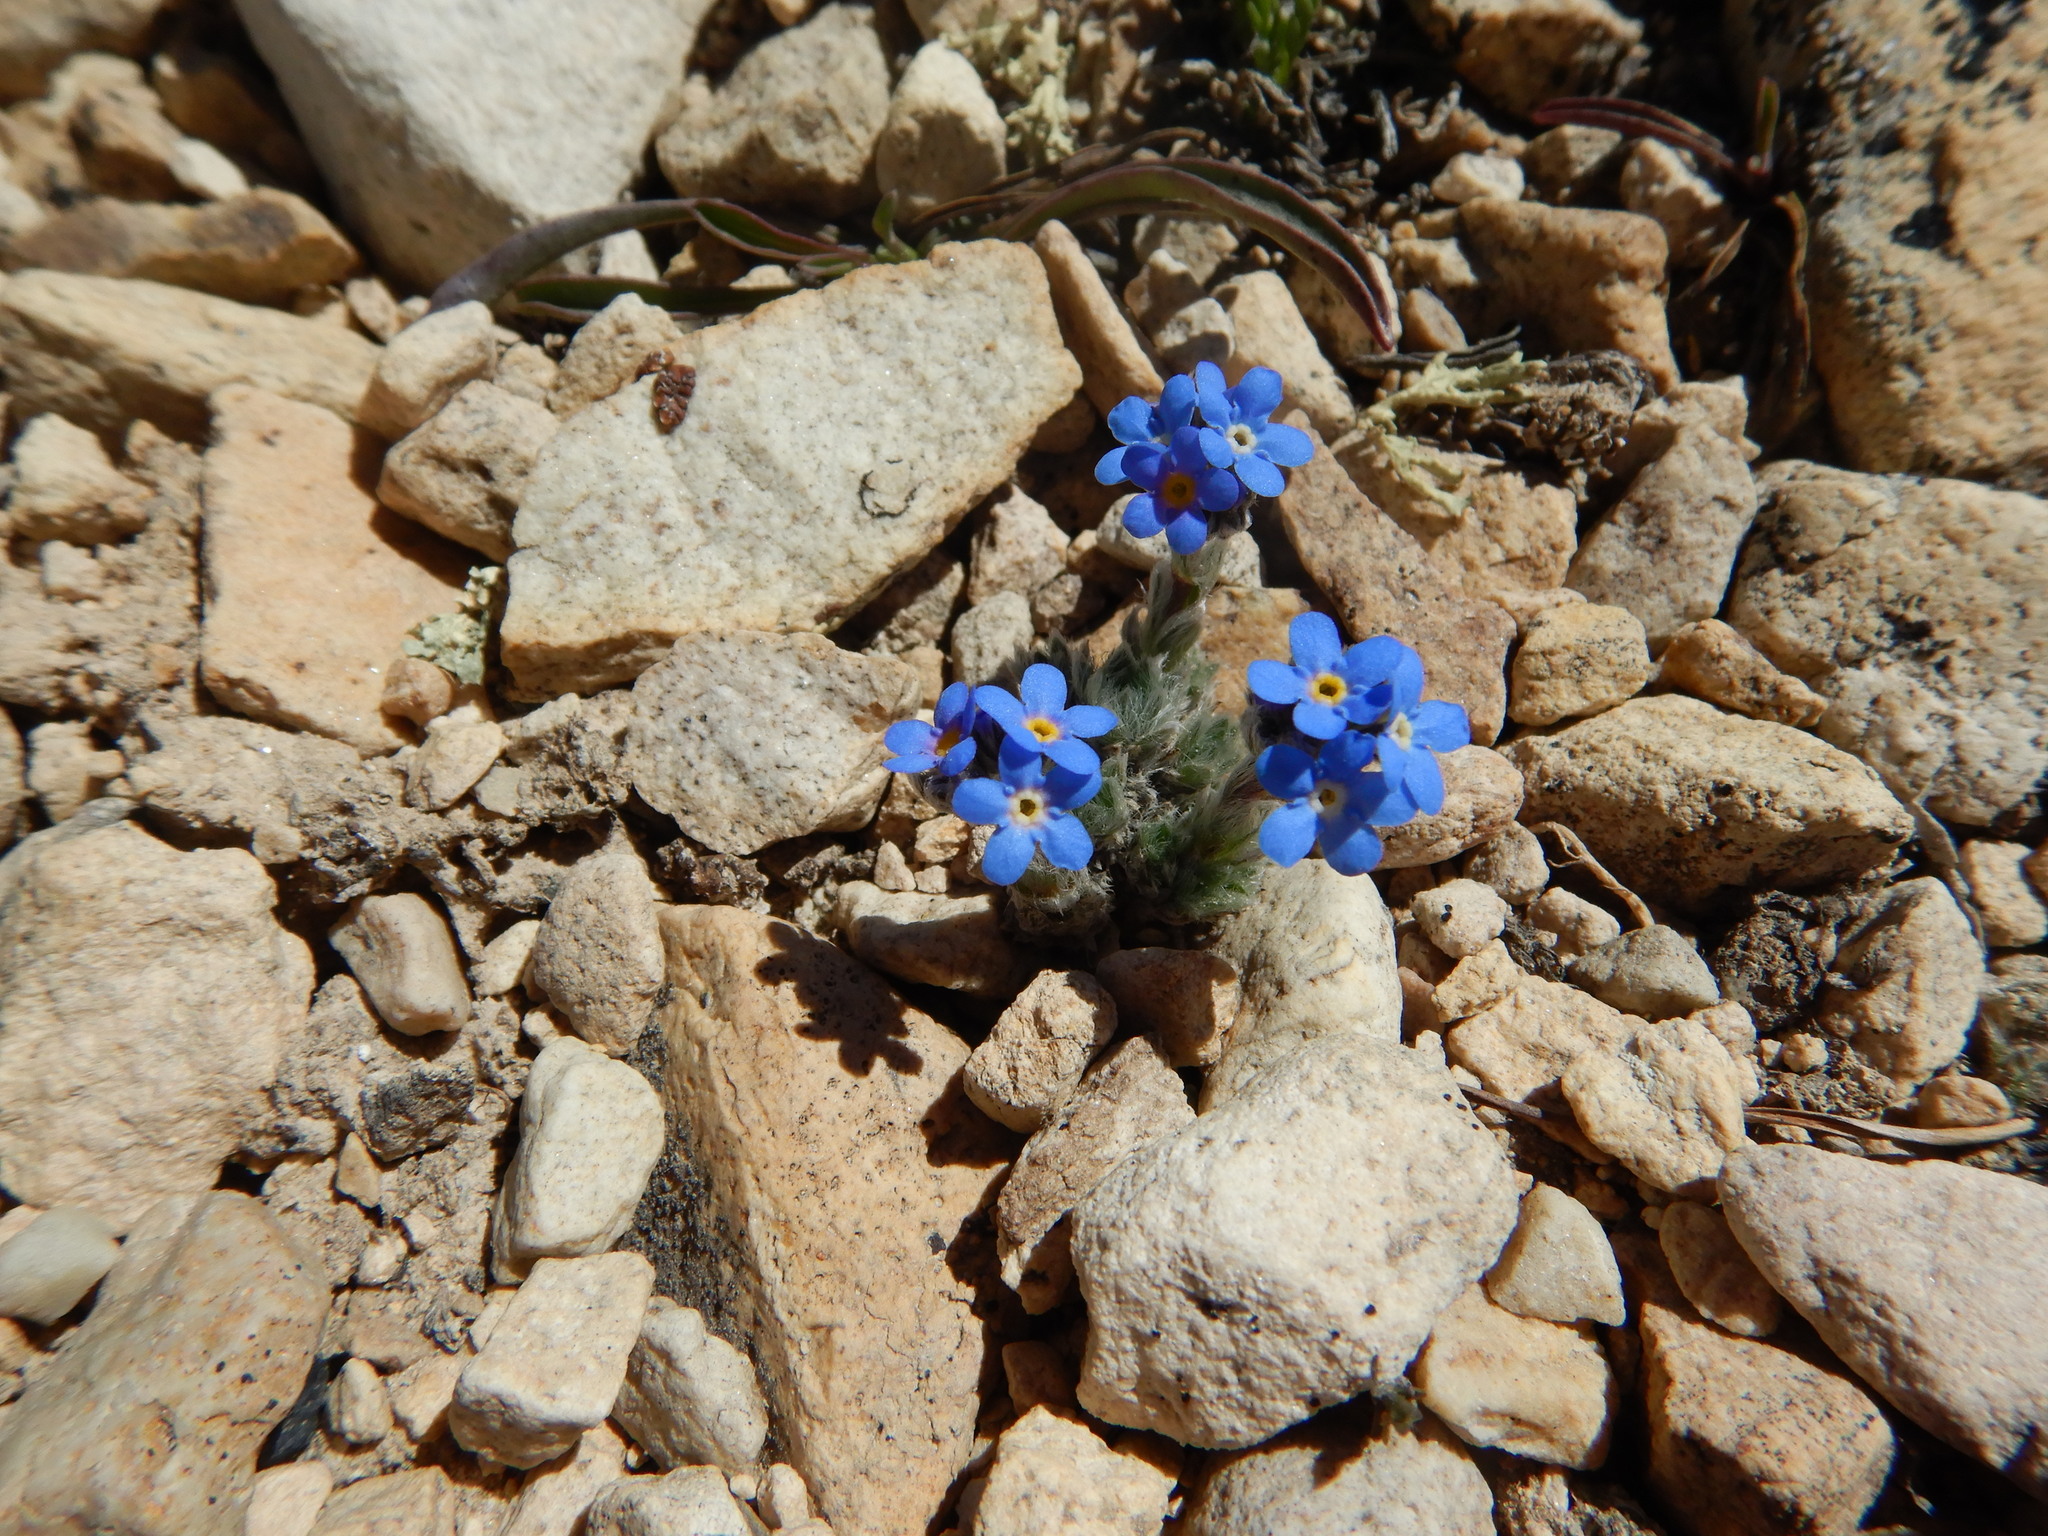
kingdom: Plantae
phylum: Tracheophyta
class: Magnoliopsida
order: Boraginales
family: Boraginaceae
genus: Eritrichium
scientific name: Eritrichium argenteum
